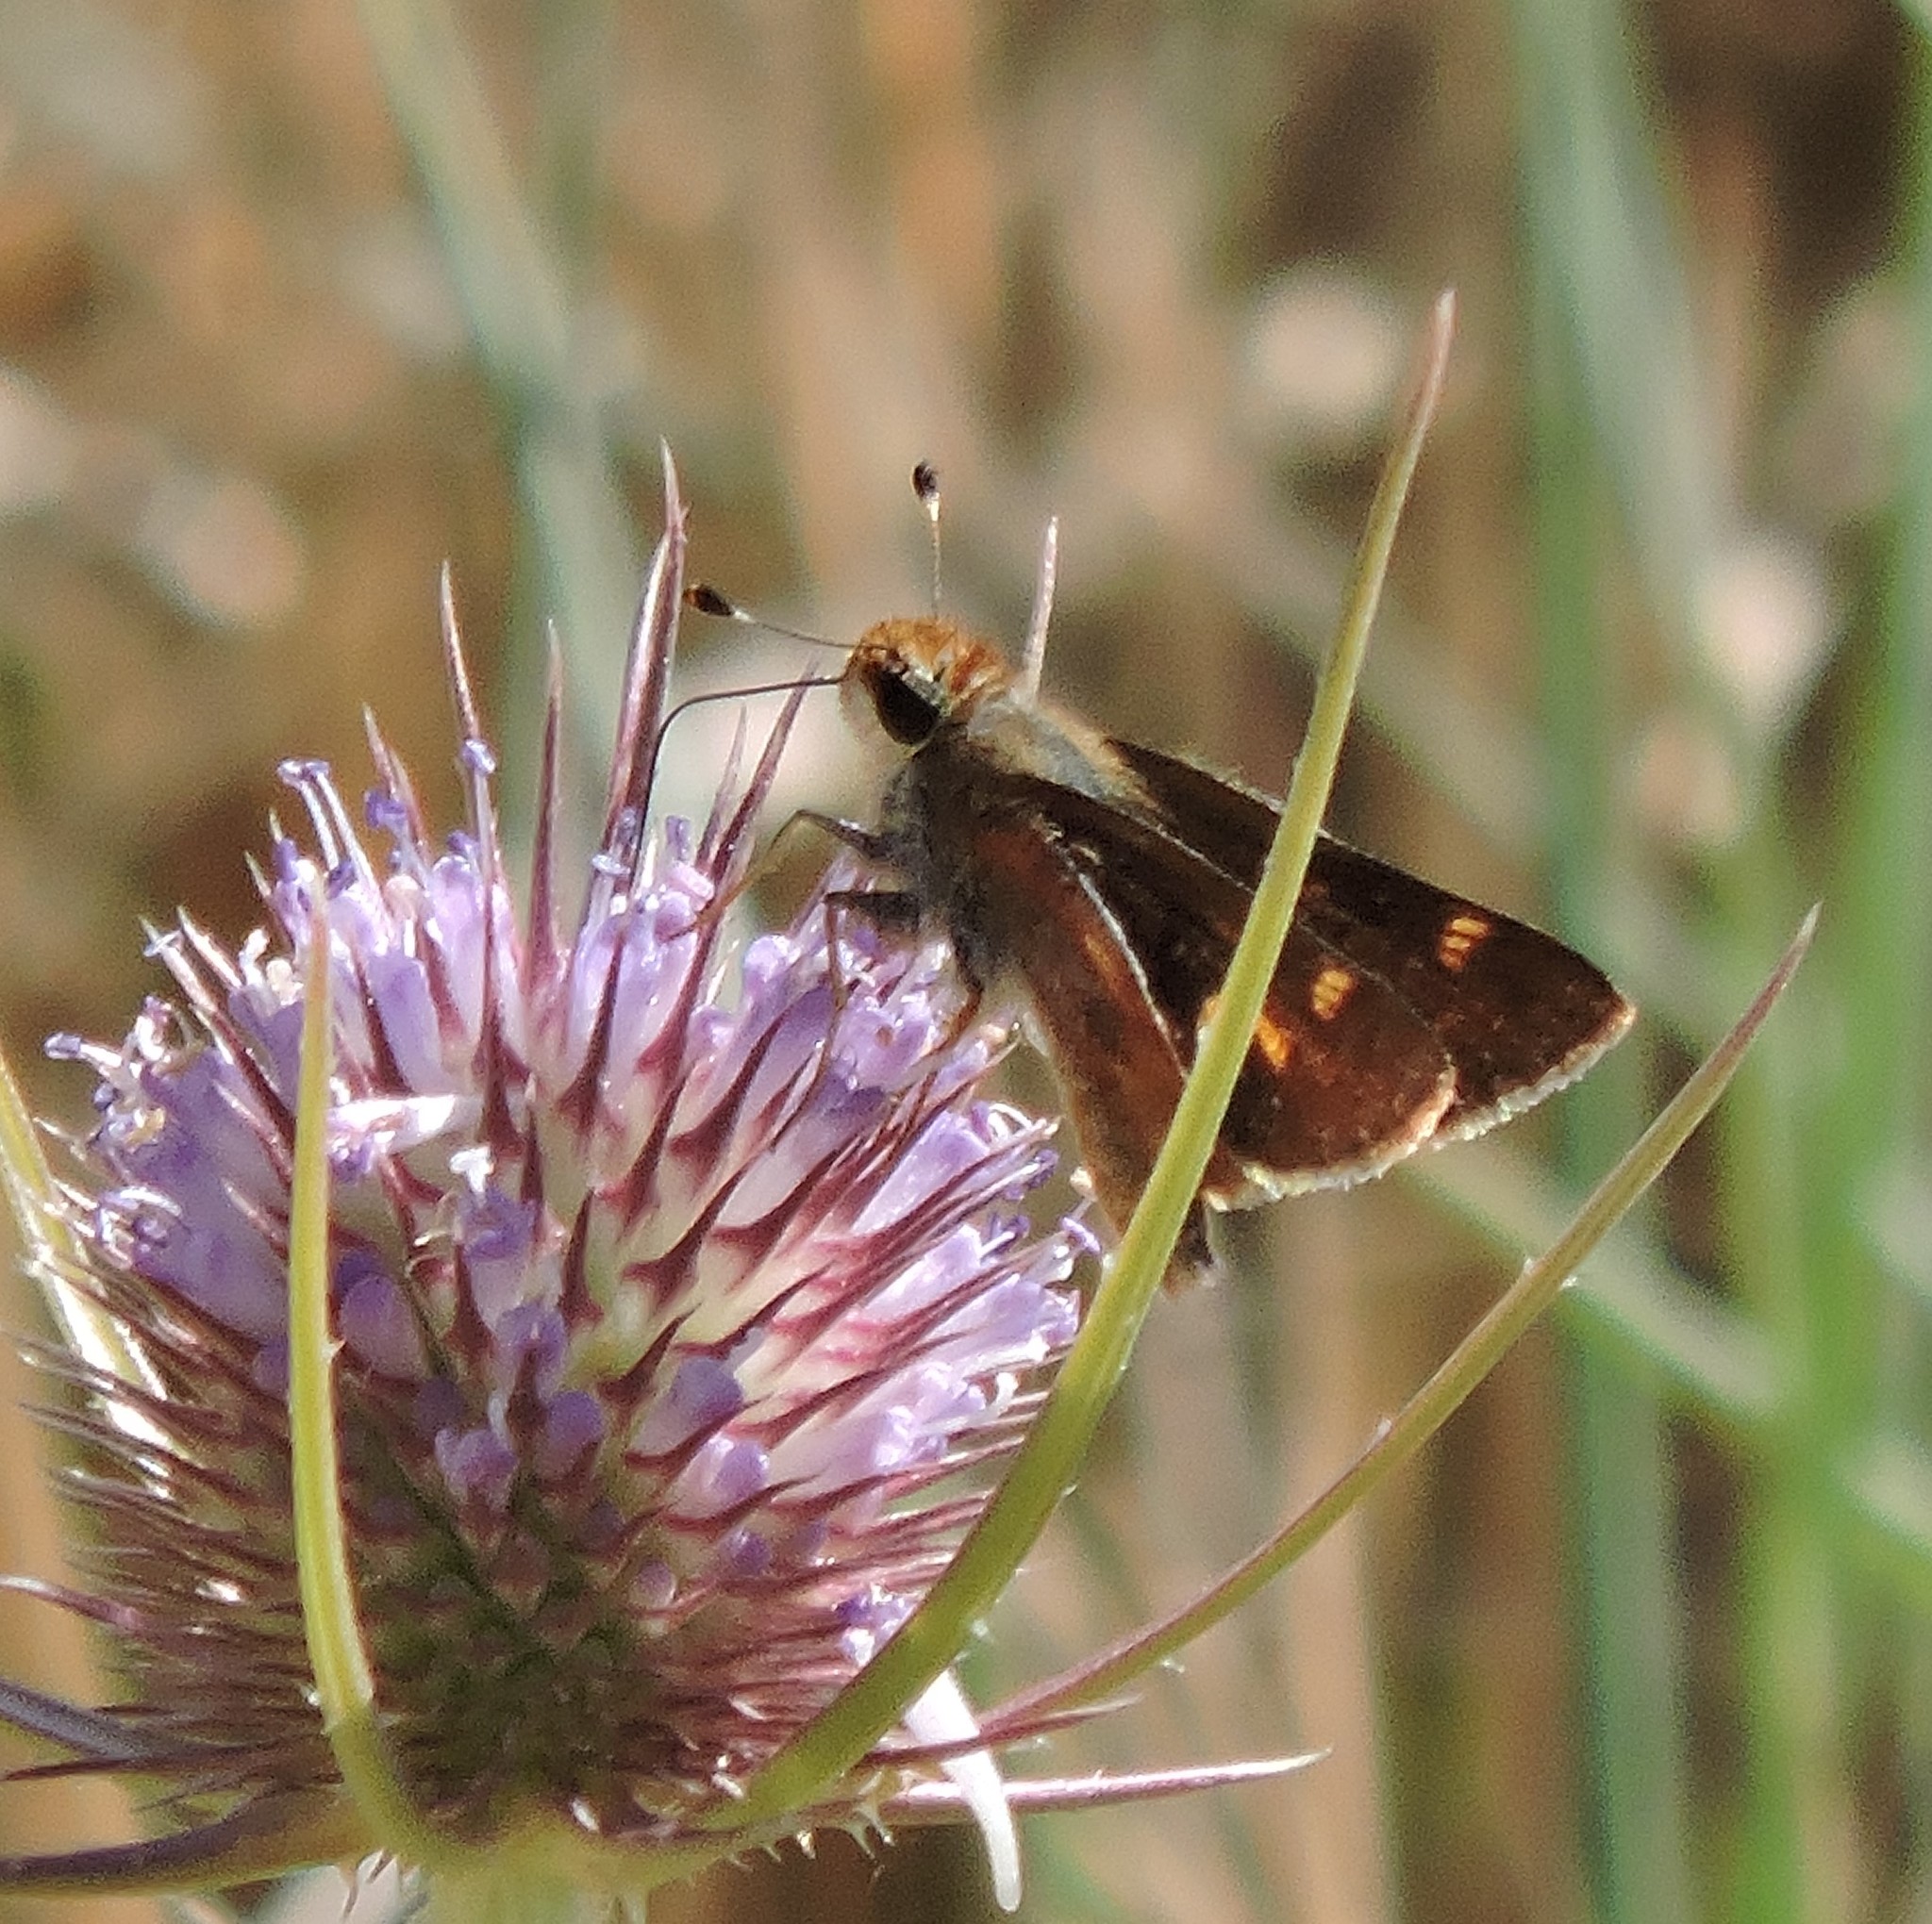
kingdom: Animalia
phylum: Arthropoda
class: Insecta
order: Lepidoptera
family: Hesperiidae
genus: Lon
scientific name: Lon melane
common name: Umber skipper
